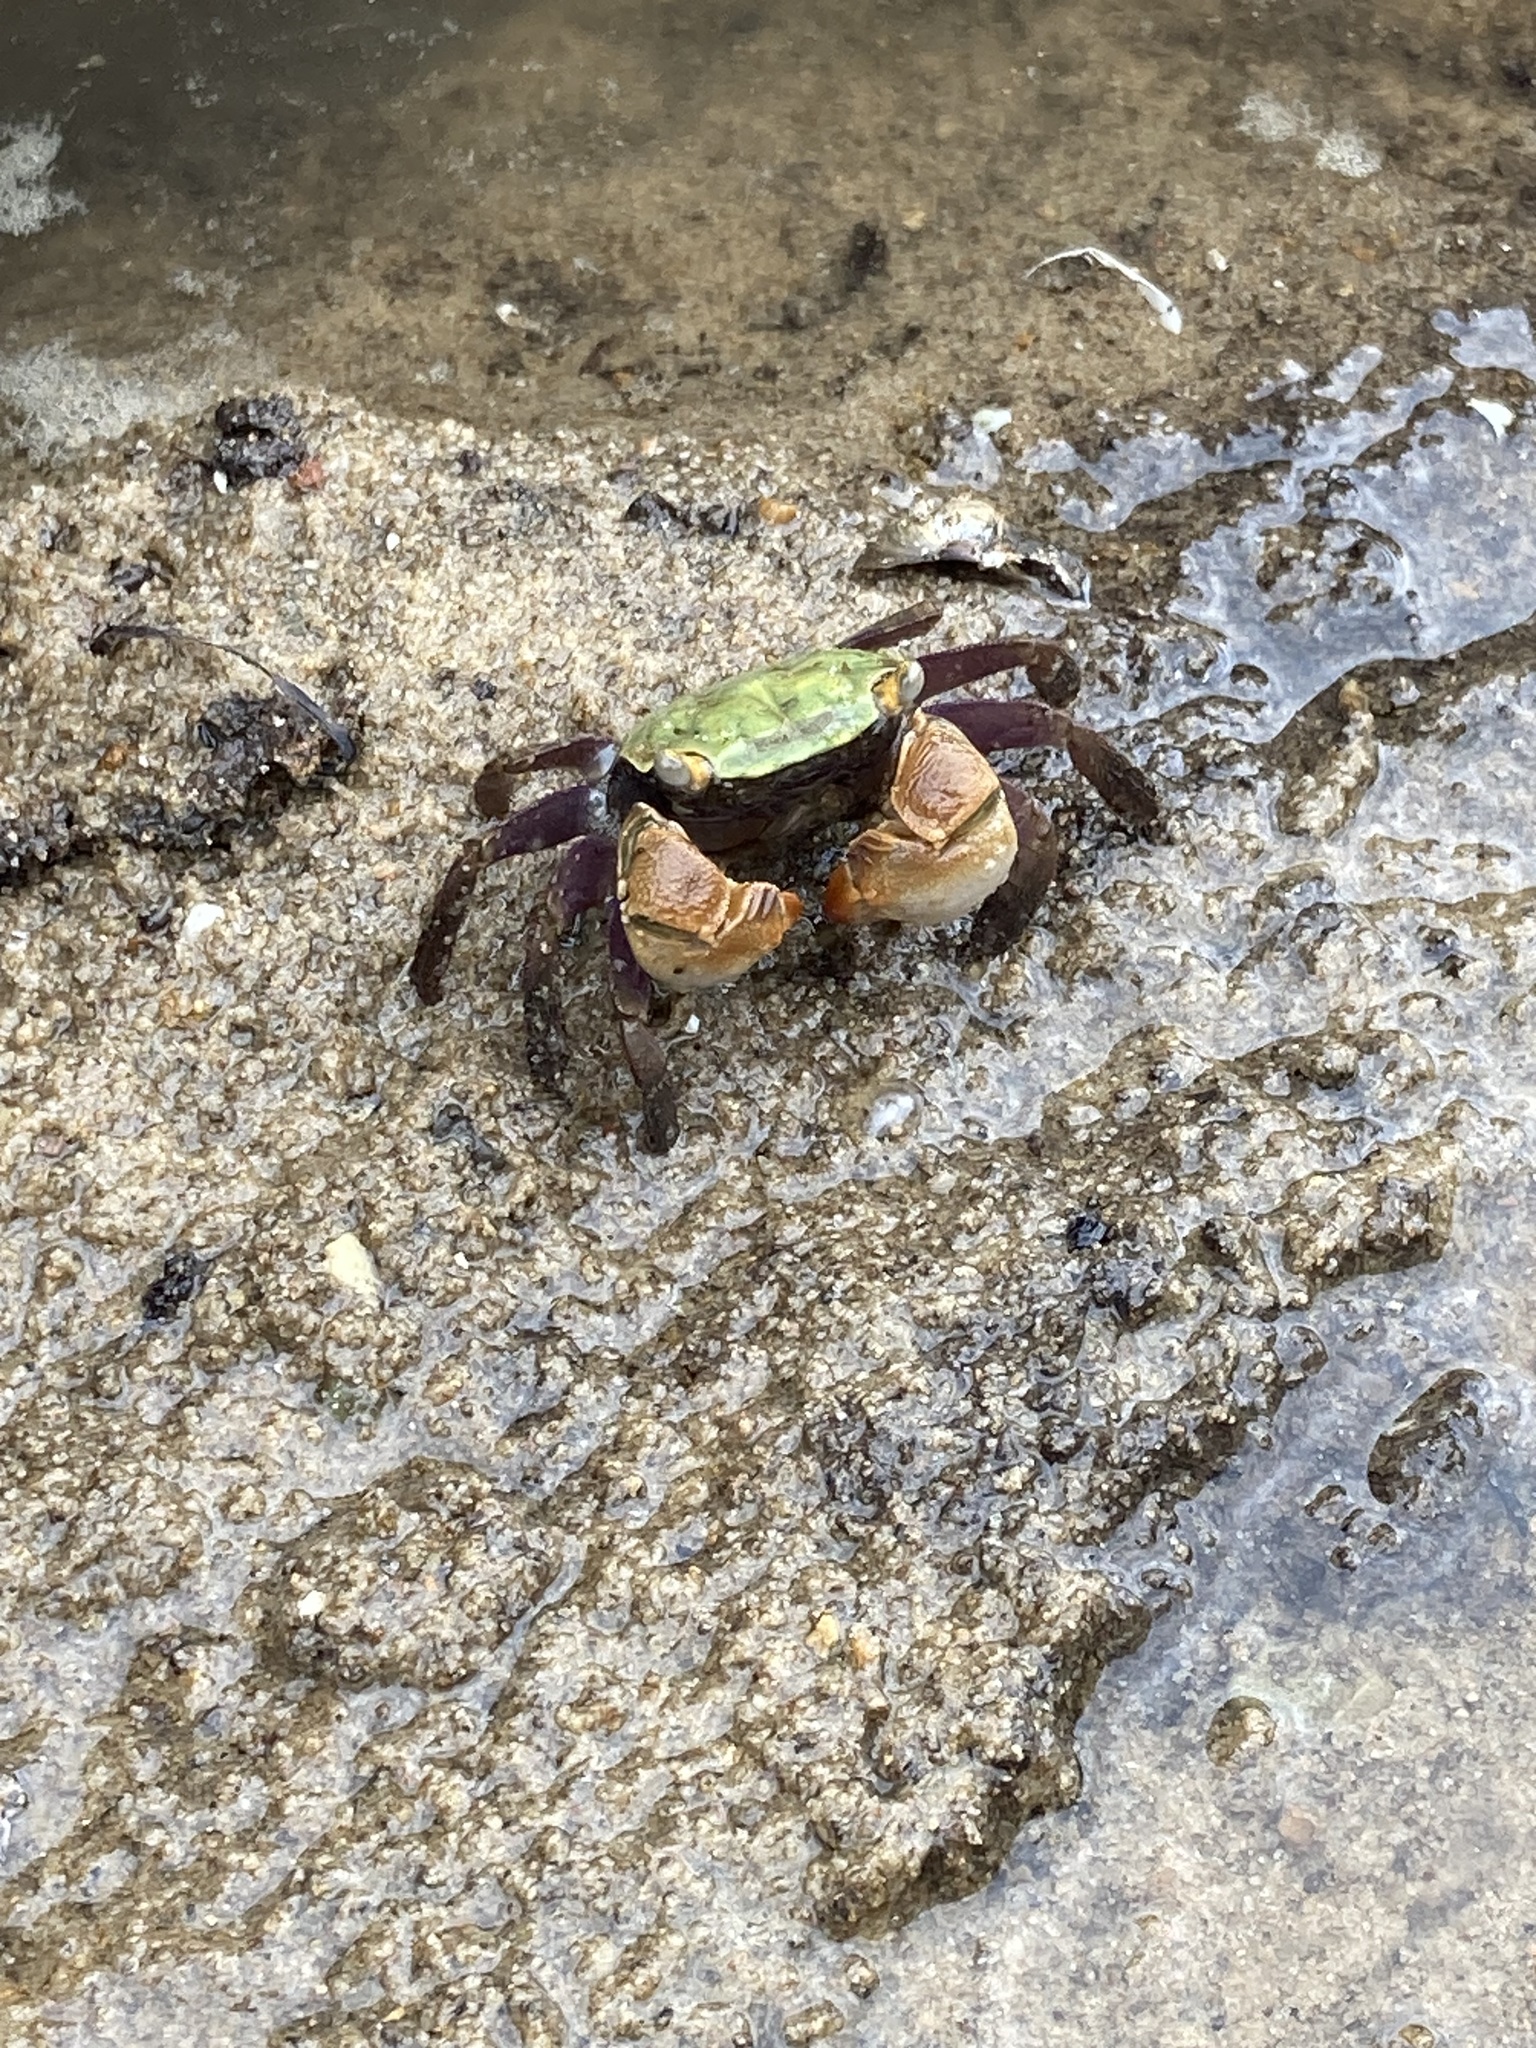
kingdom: Animalia
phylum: Arthropoda
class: Malacostraca
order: Decapoda
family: Sesarmidae
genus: Parasesarma
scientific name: Parasesarma erythodactylum
